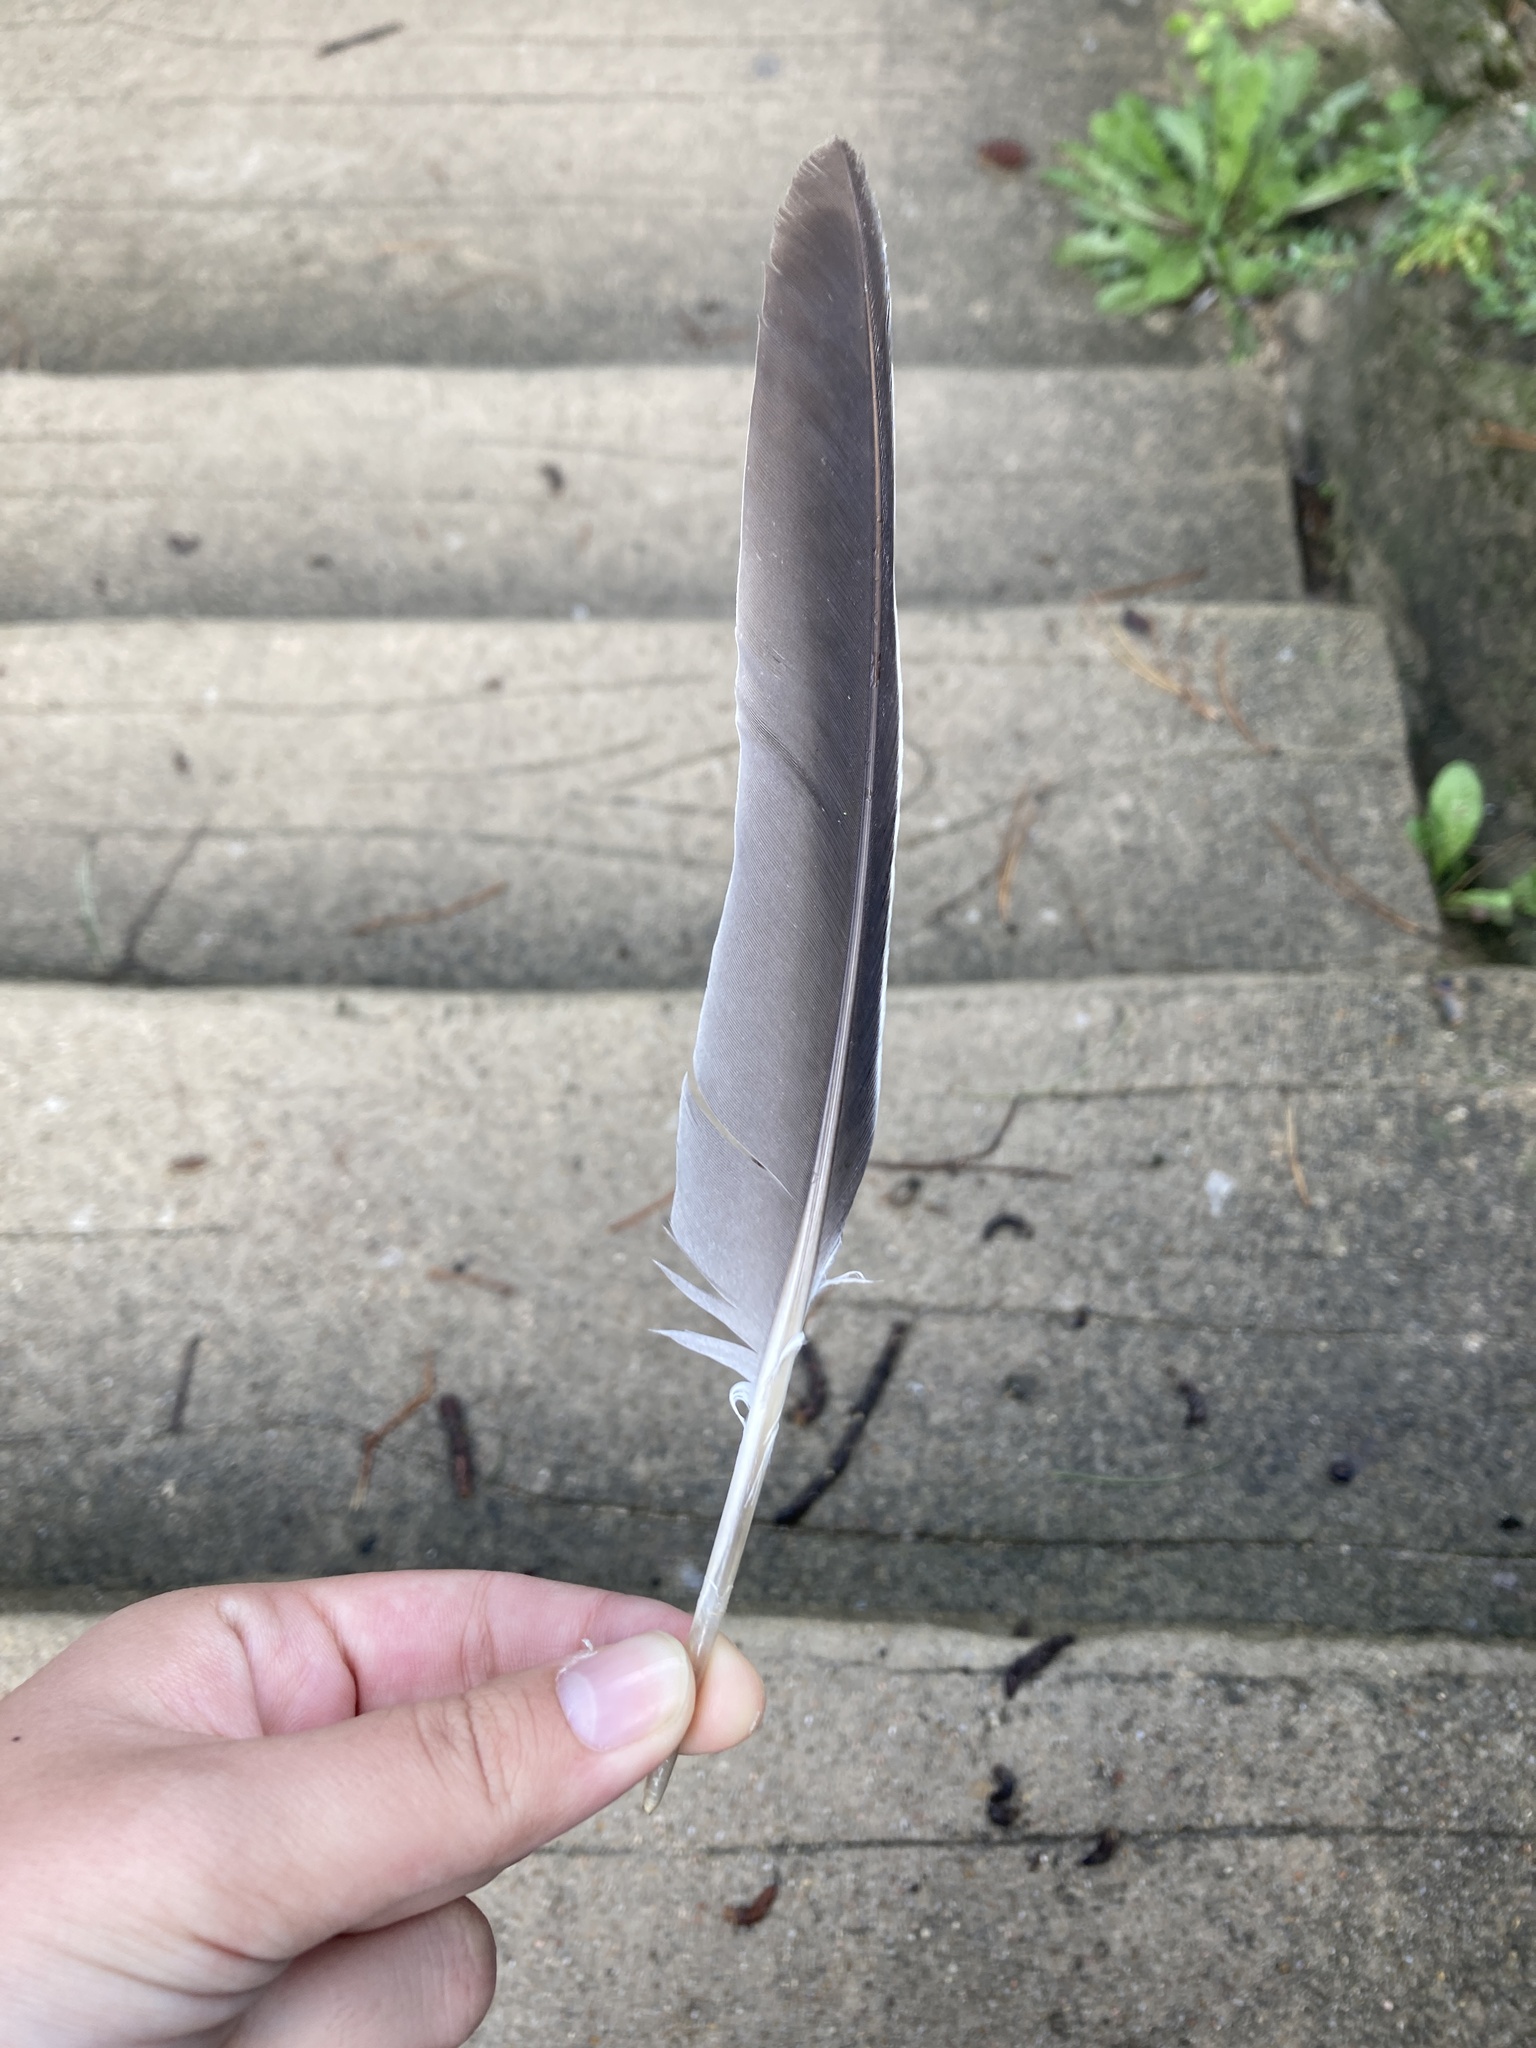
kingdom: Animalia
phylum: Chordata
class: Aves
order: Columbiformes
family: Columbidae
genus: Columba
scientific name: Columba palumbus
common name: Common wood pigeon
